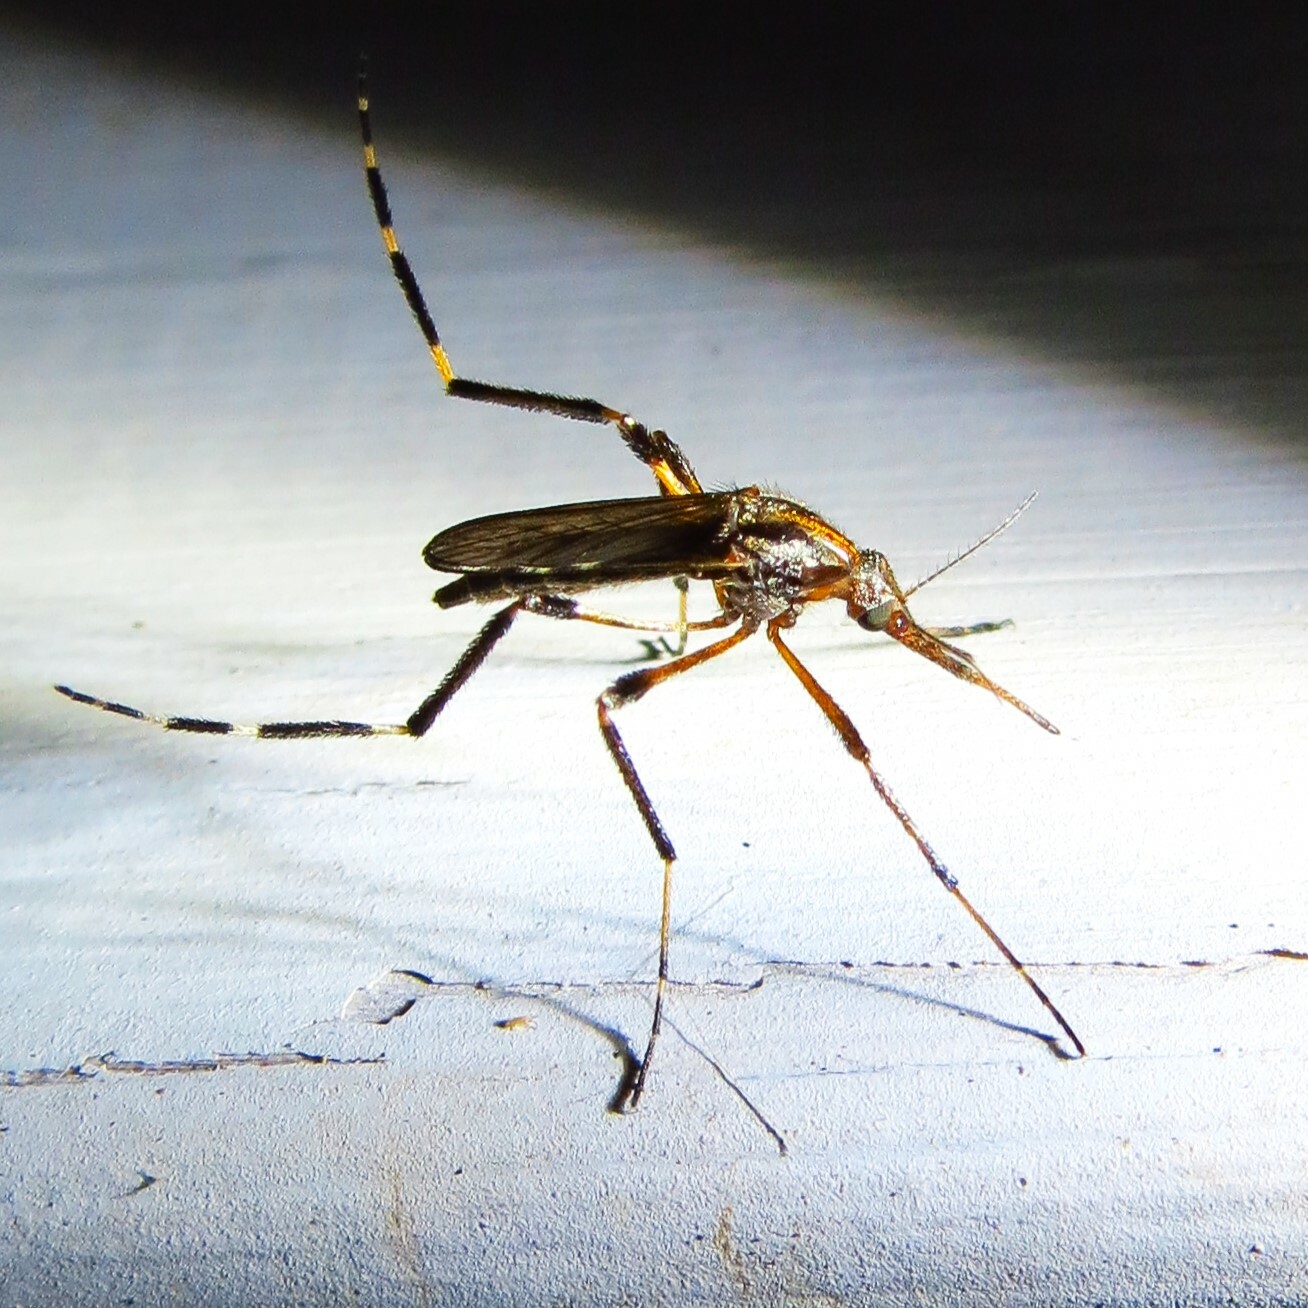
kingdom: Animalia
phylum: Arthropoda
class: Insecta
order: Diptera
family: Culicidae
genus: Psorophora
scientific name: Psorophora ciliata
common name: Gallinipper
